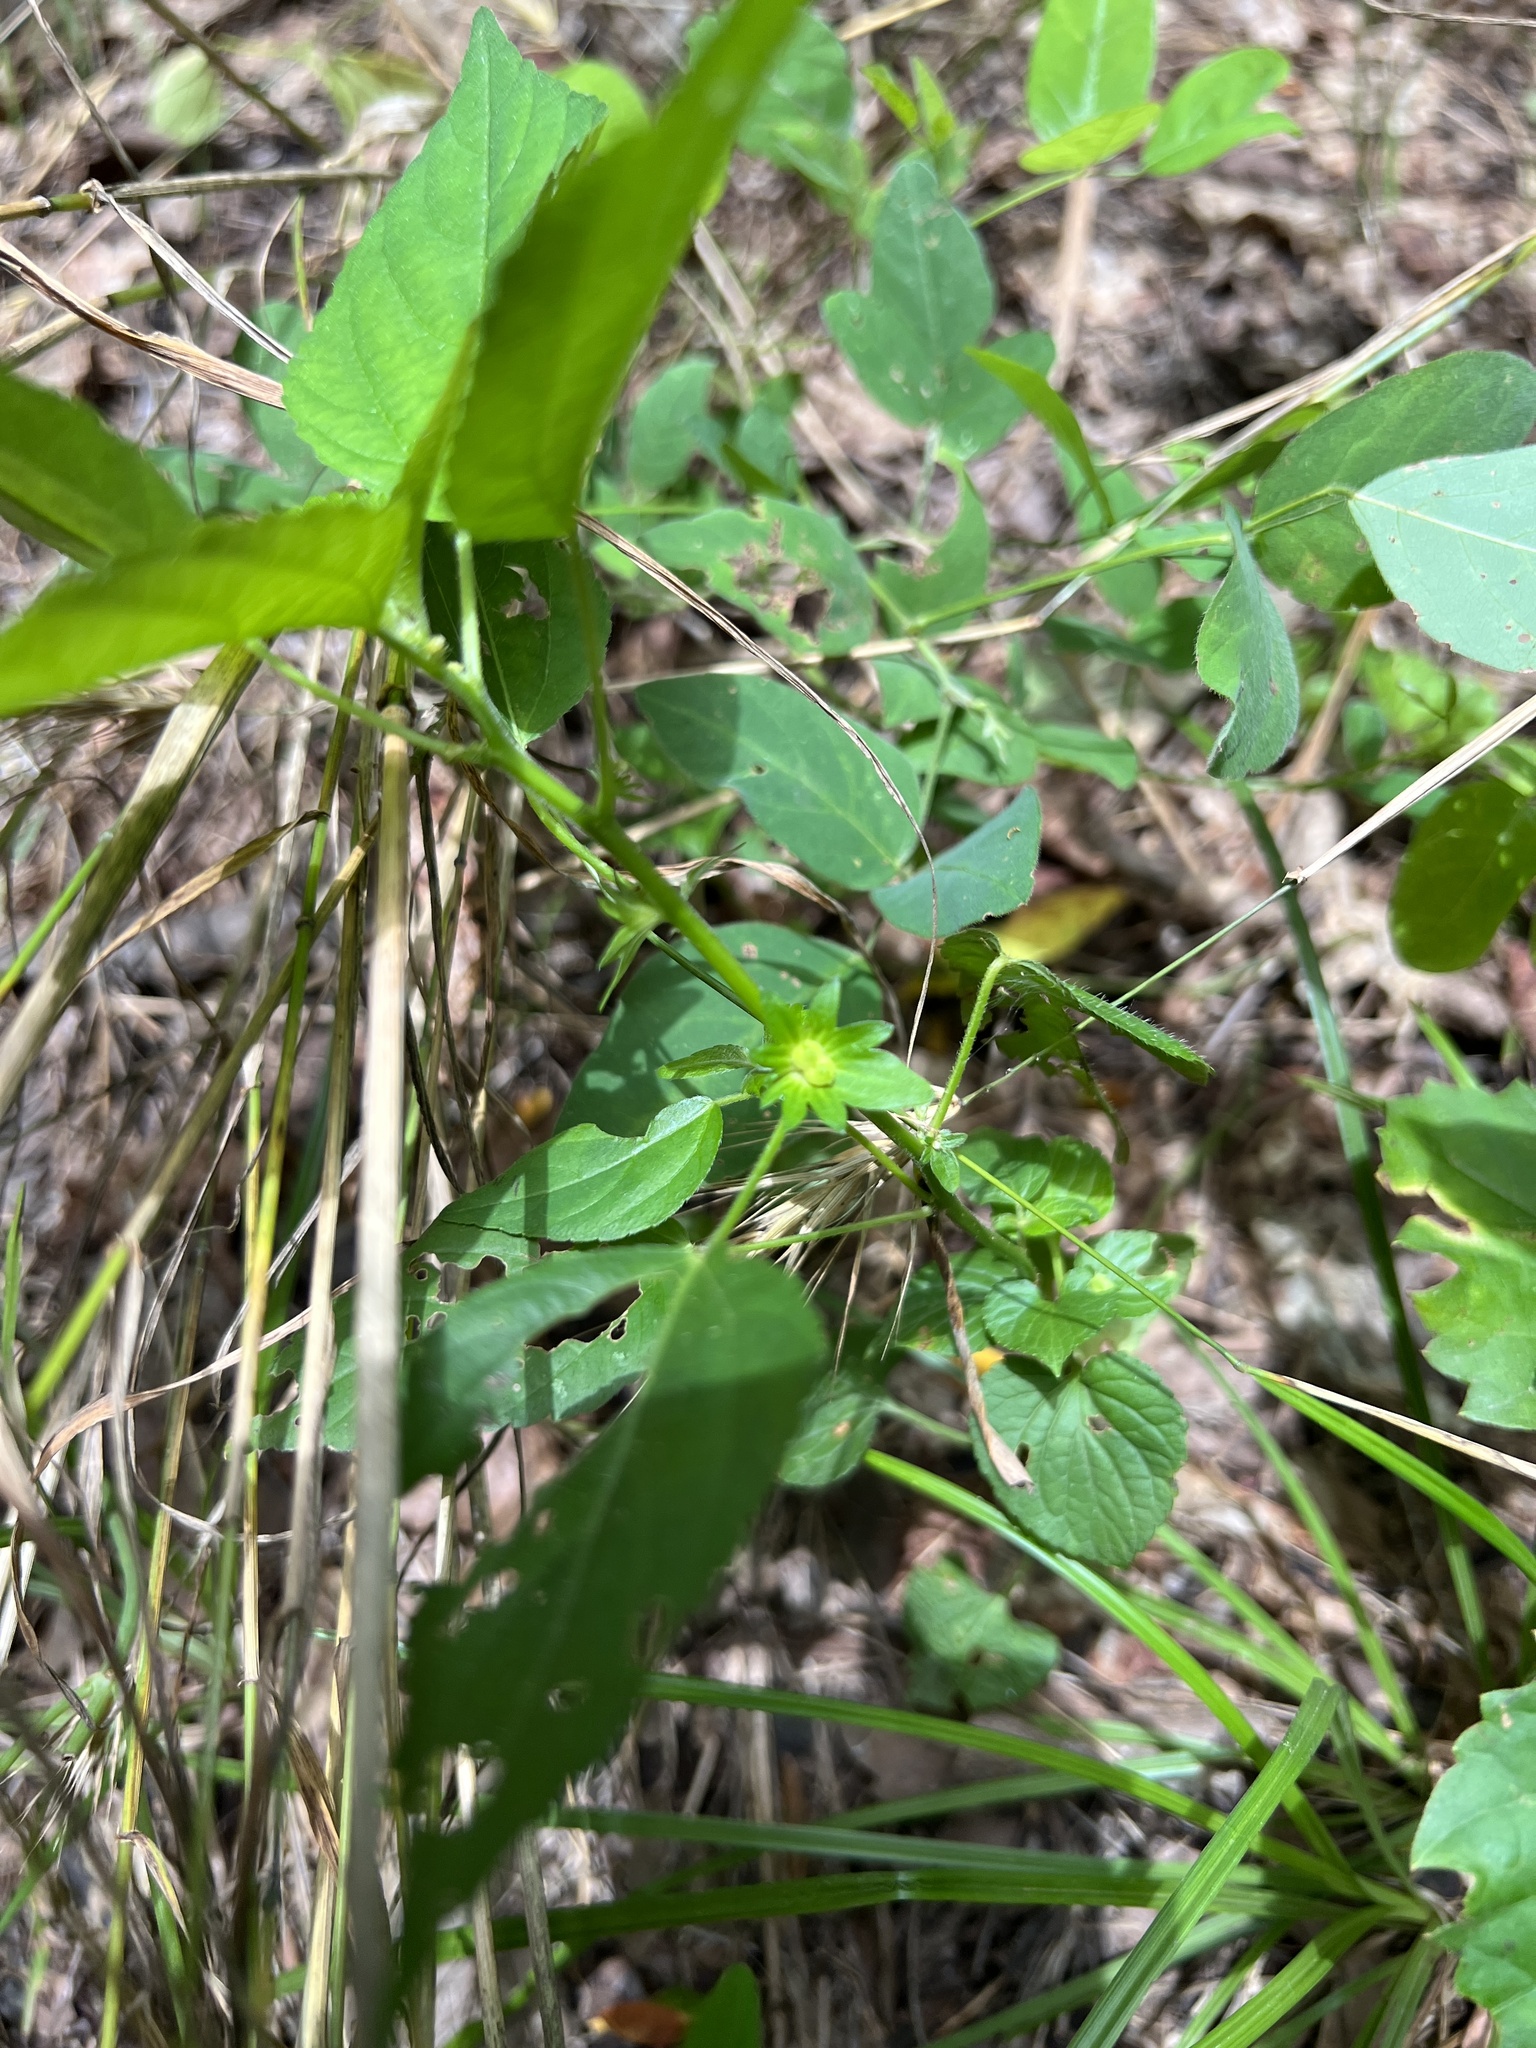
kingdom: Plantae
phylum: Tracheophyta
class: Magnoliopsida
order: Malpighiales
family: Euphorbiaceae
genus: Acalypha
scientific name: Acalypha deamii
